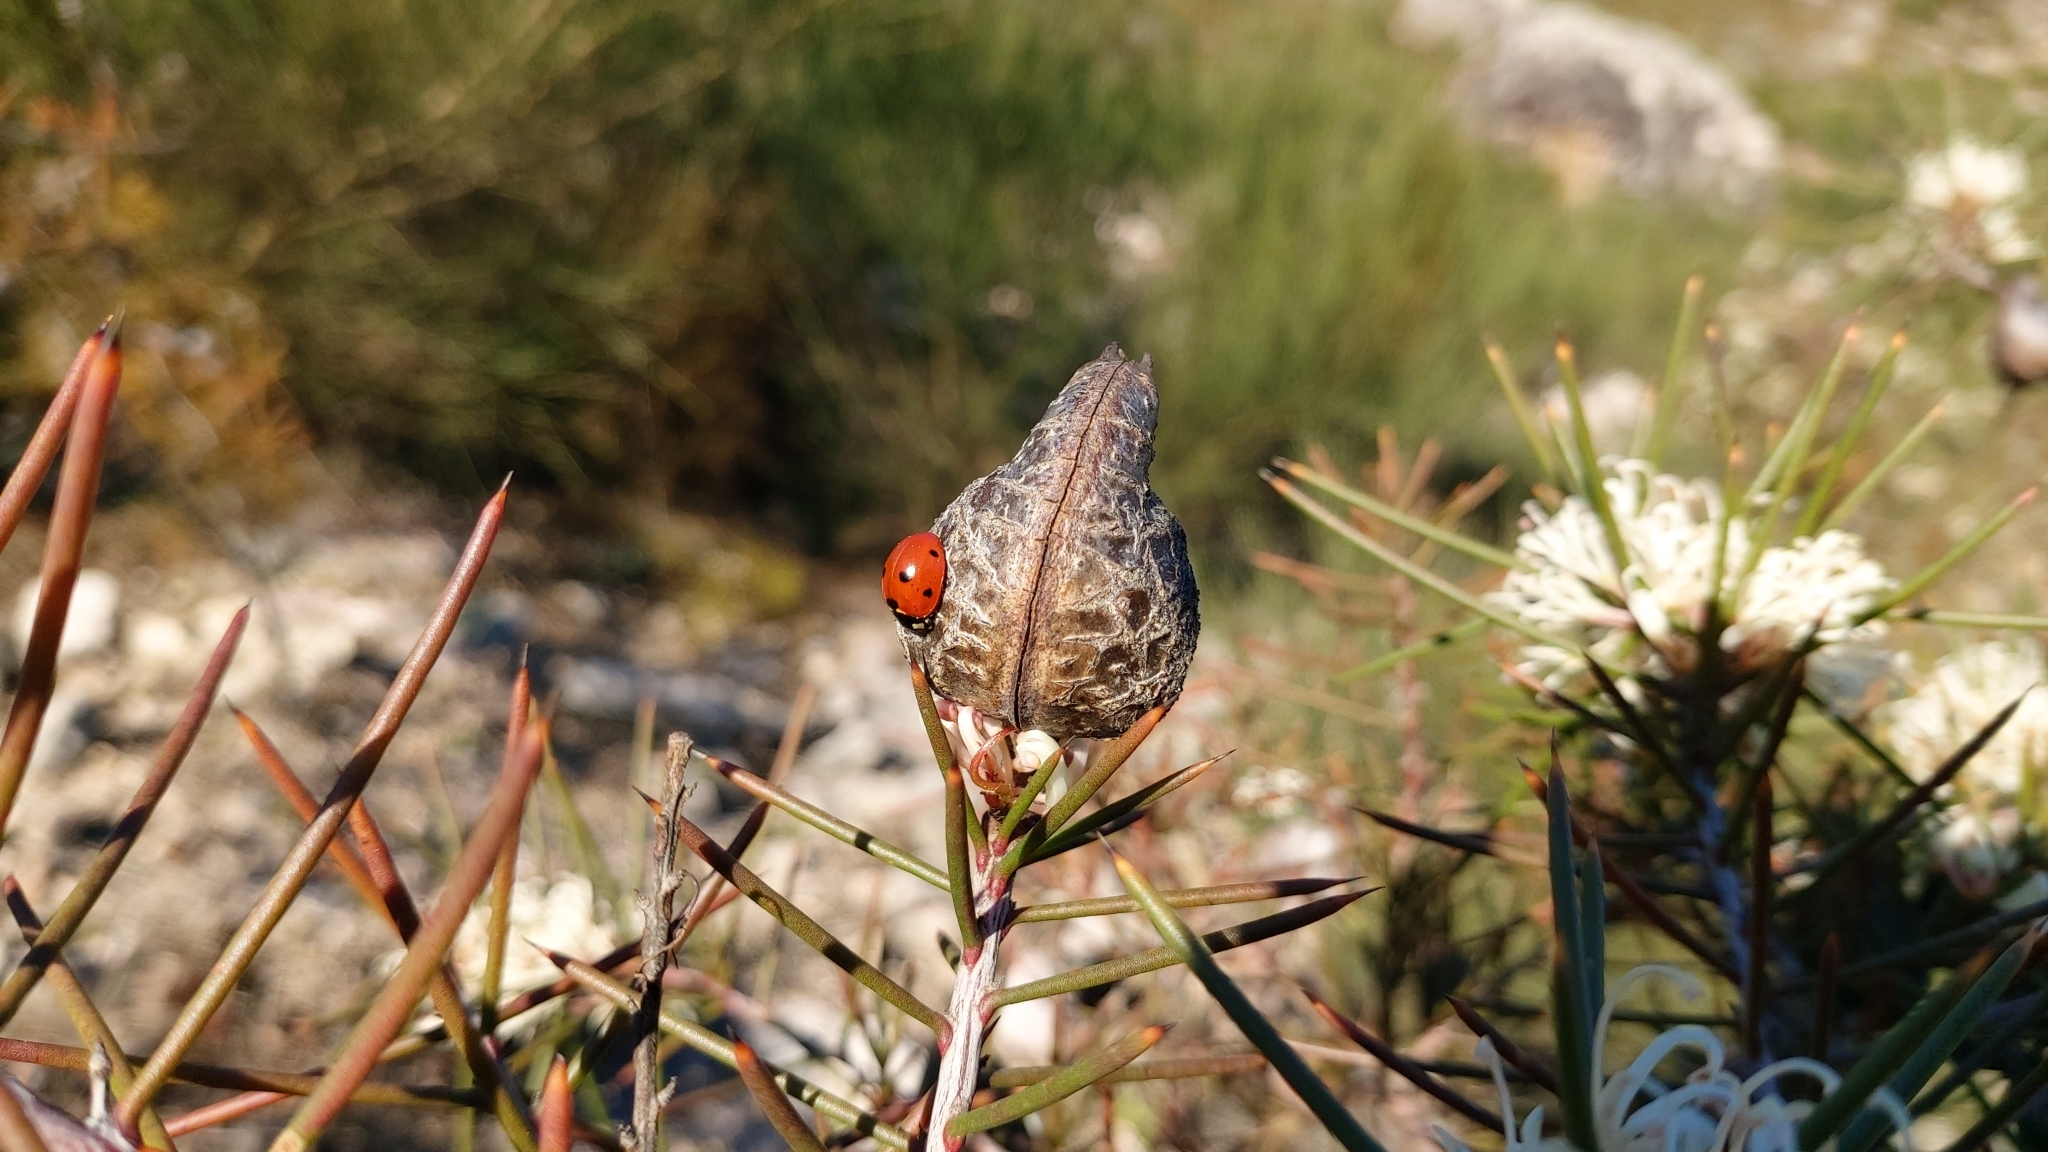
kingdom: Animalia
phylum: Arthropoda
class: Insecta
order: Coleoptera
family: Coccinellidae
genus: Coccinella
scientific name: Coccinella septempunctata
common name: Sevenspotted lady beetle
